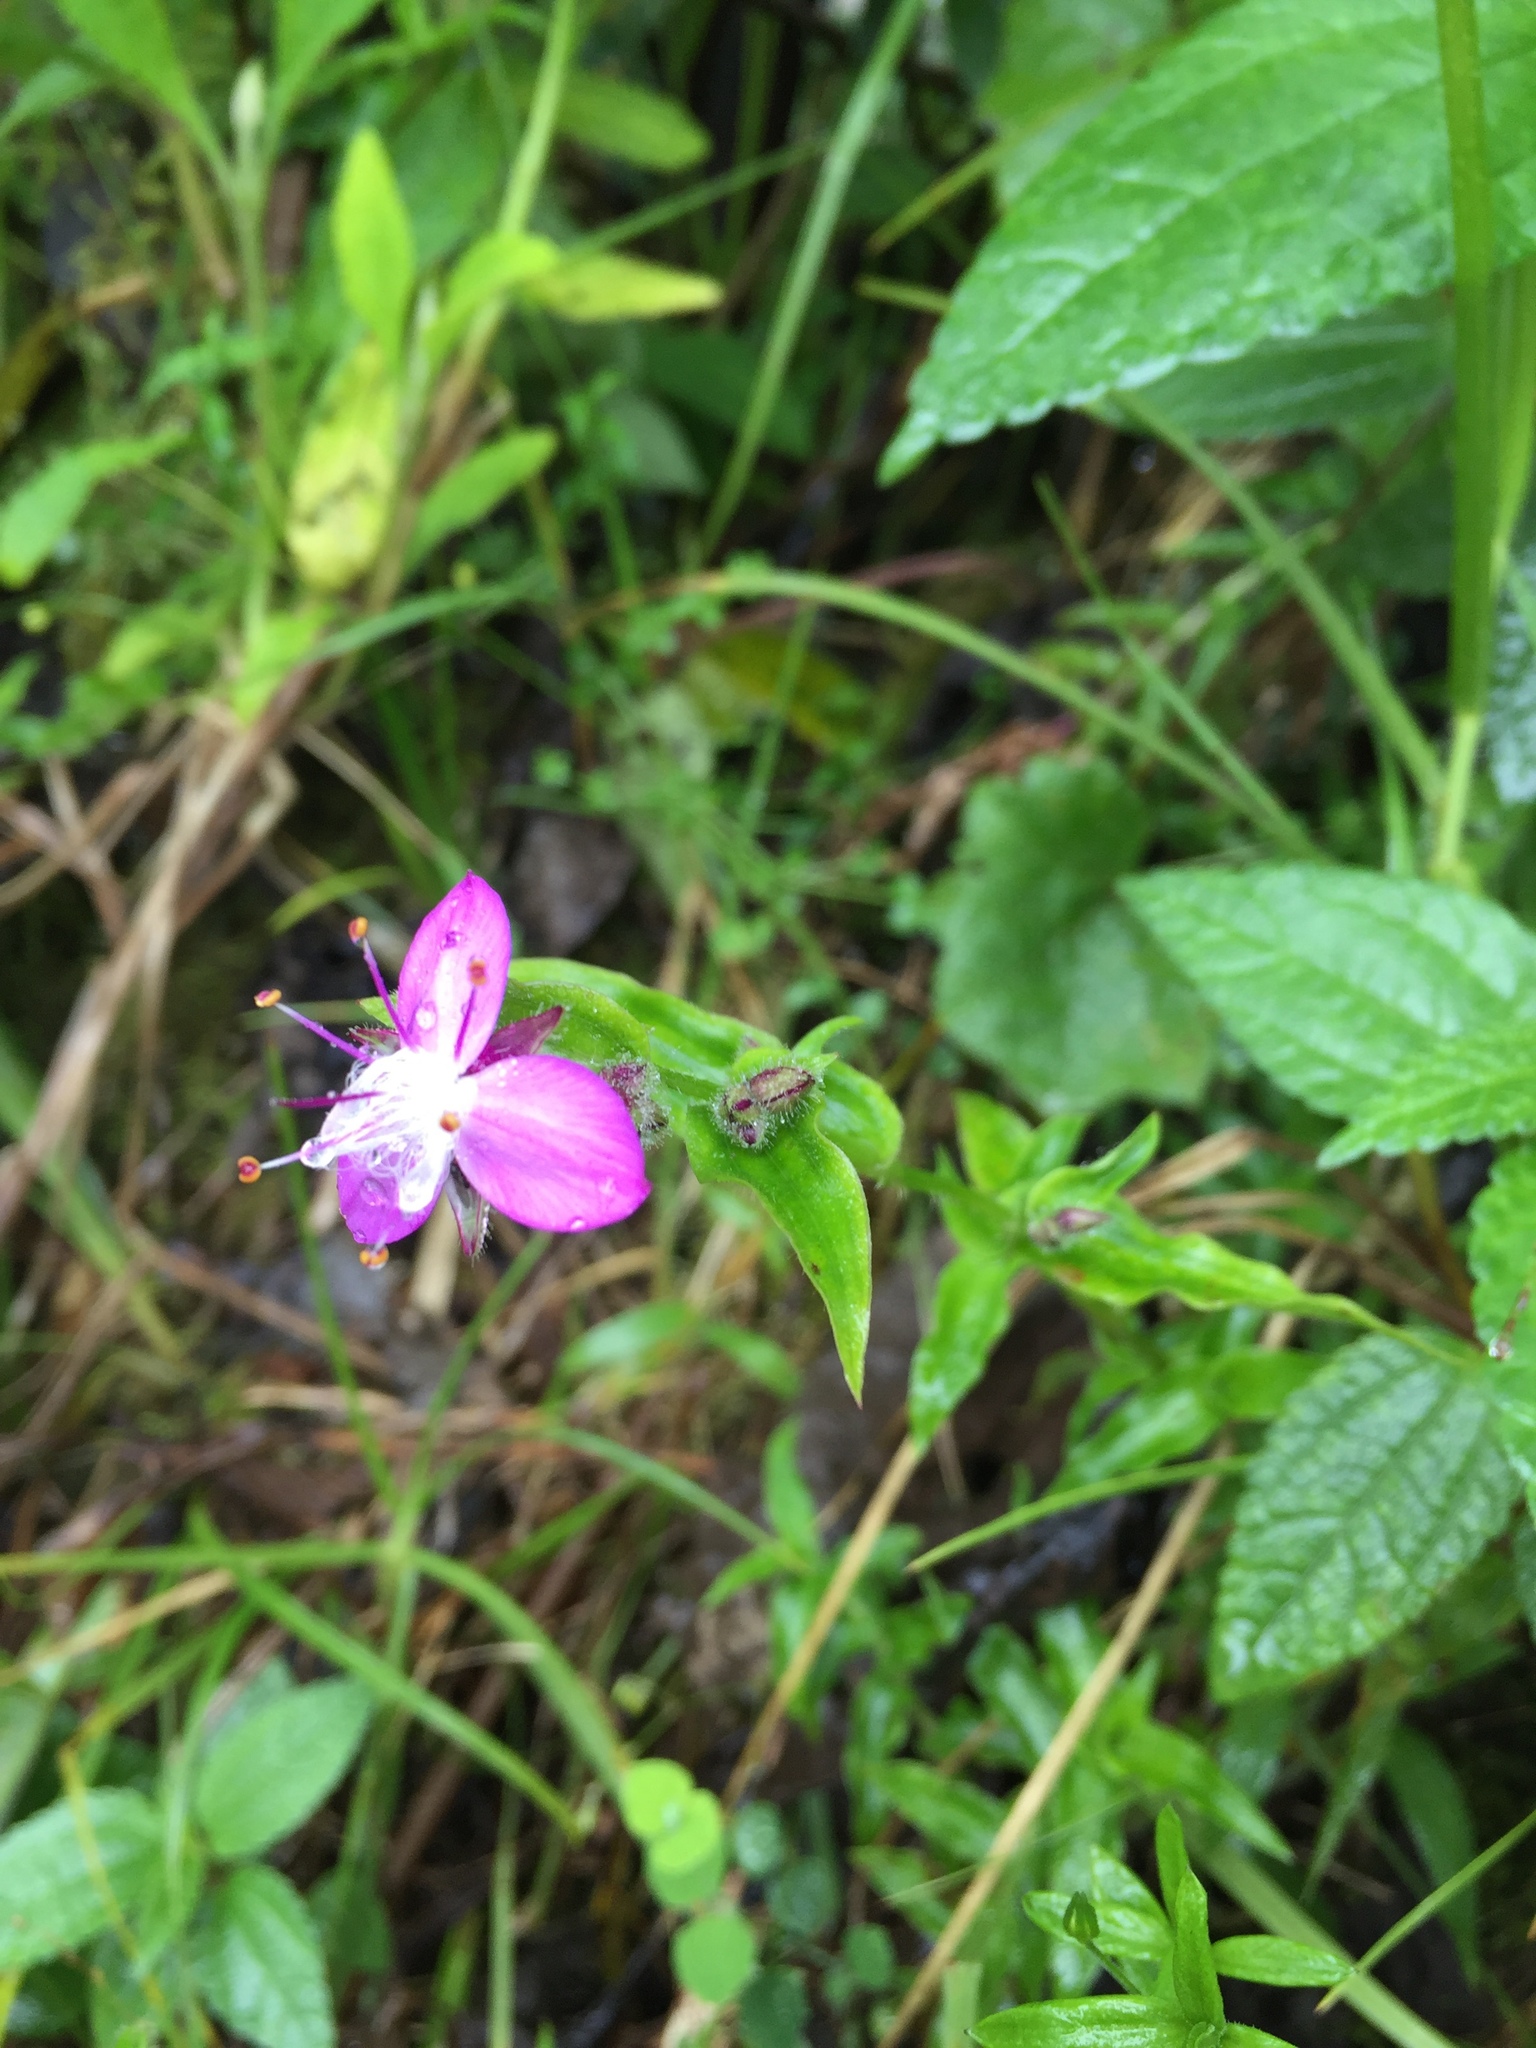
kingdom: Plantae
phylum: Tracheophyta
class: Liliopsida
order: Commelinales
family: Commelinaceae
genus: Elasis
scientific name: Elasis hirsuta
